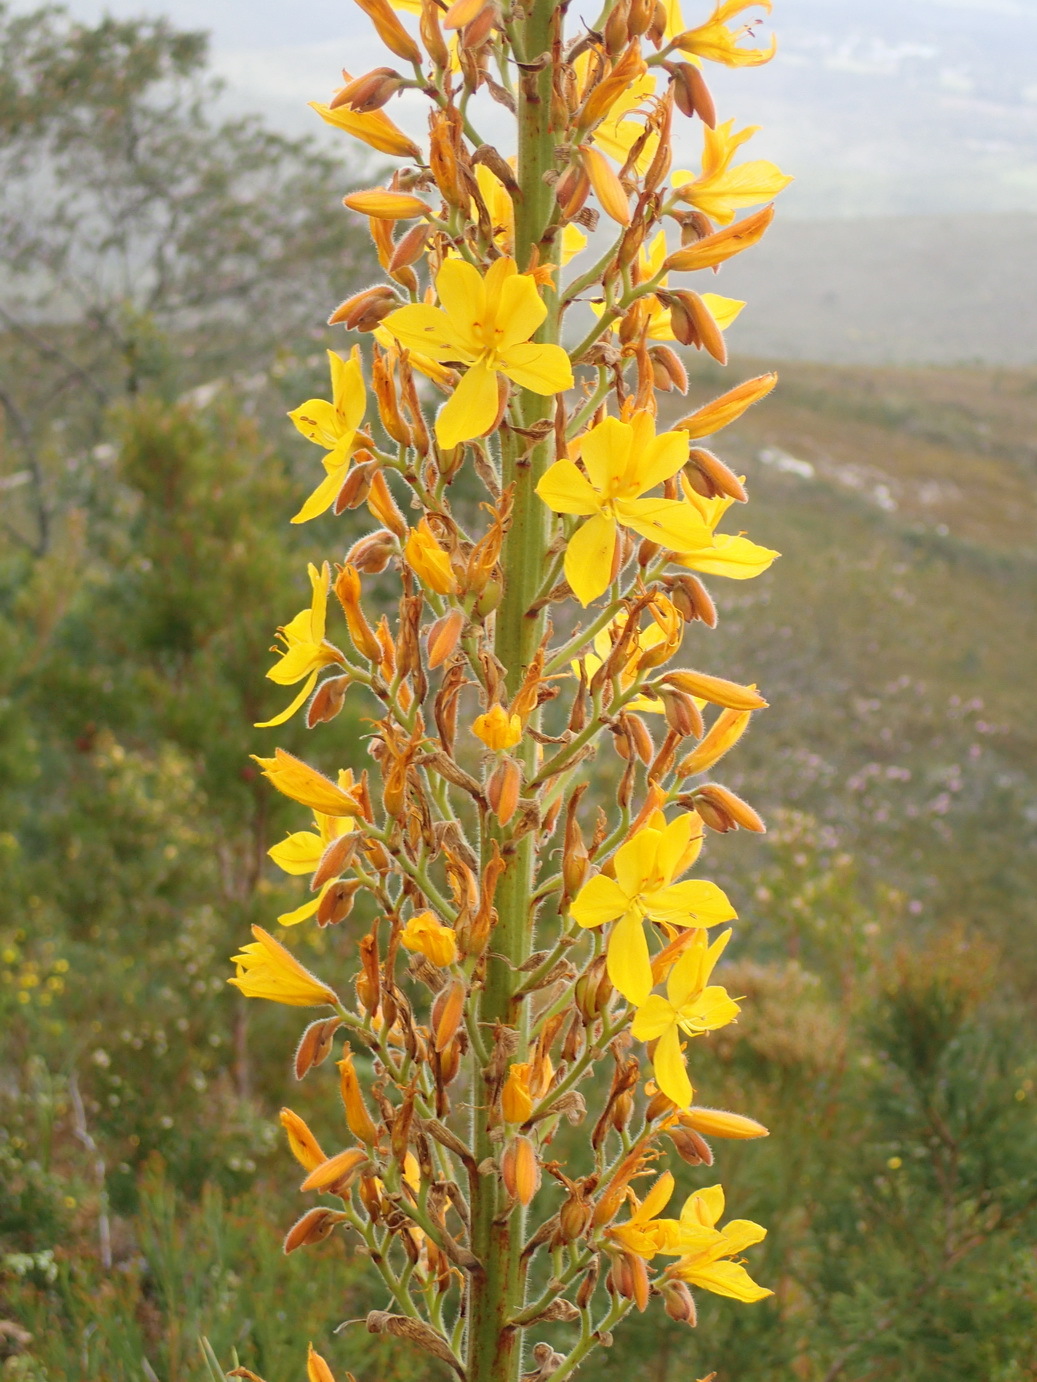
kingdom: Plantae
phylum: Tracheophyta
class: Liliopsida
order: Commelinales
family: Haemodoraceae
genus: Wachendorfia
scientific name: Wachendorfia thyrsiflora
